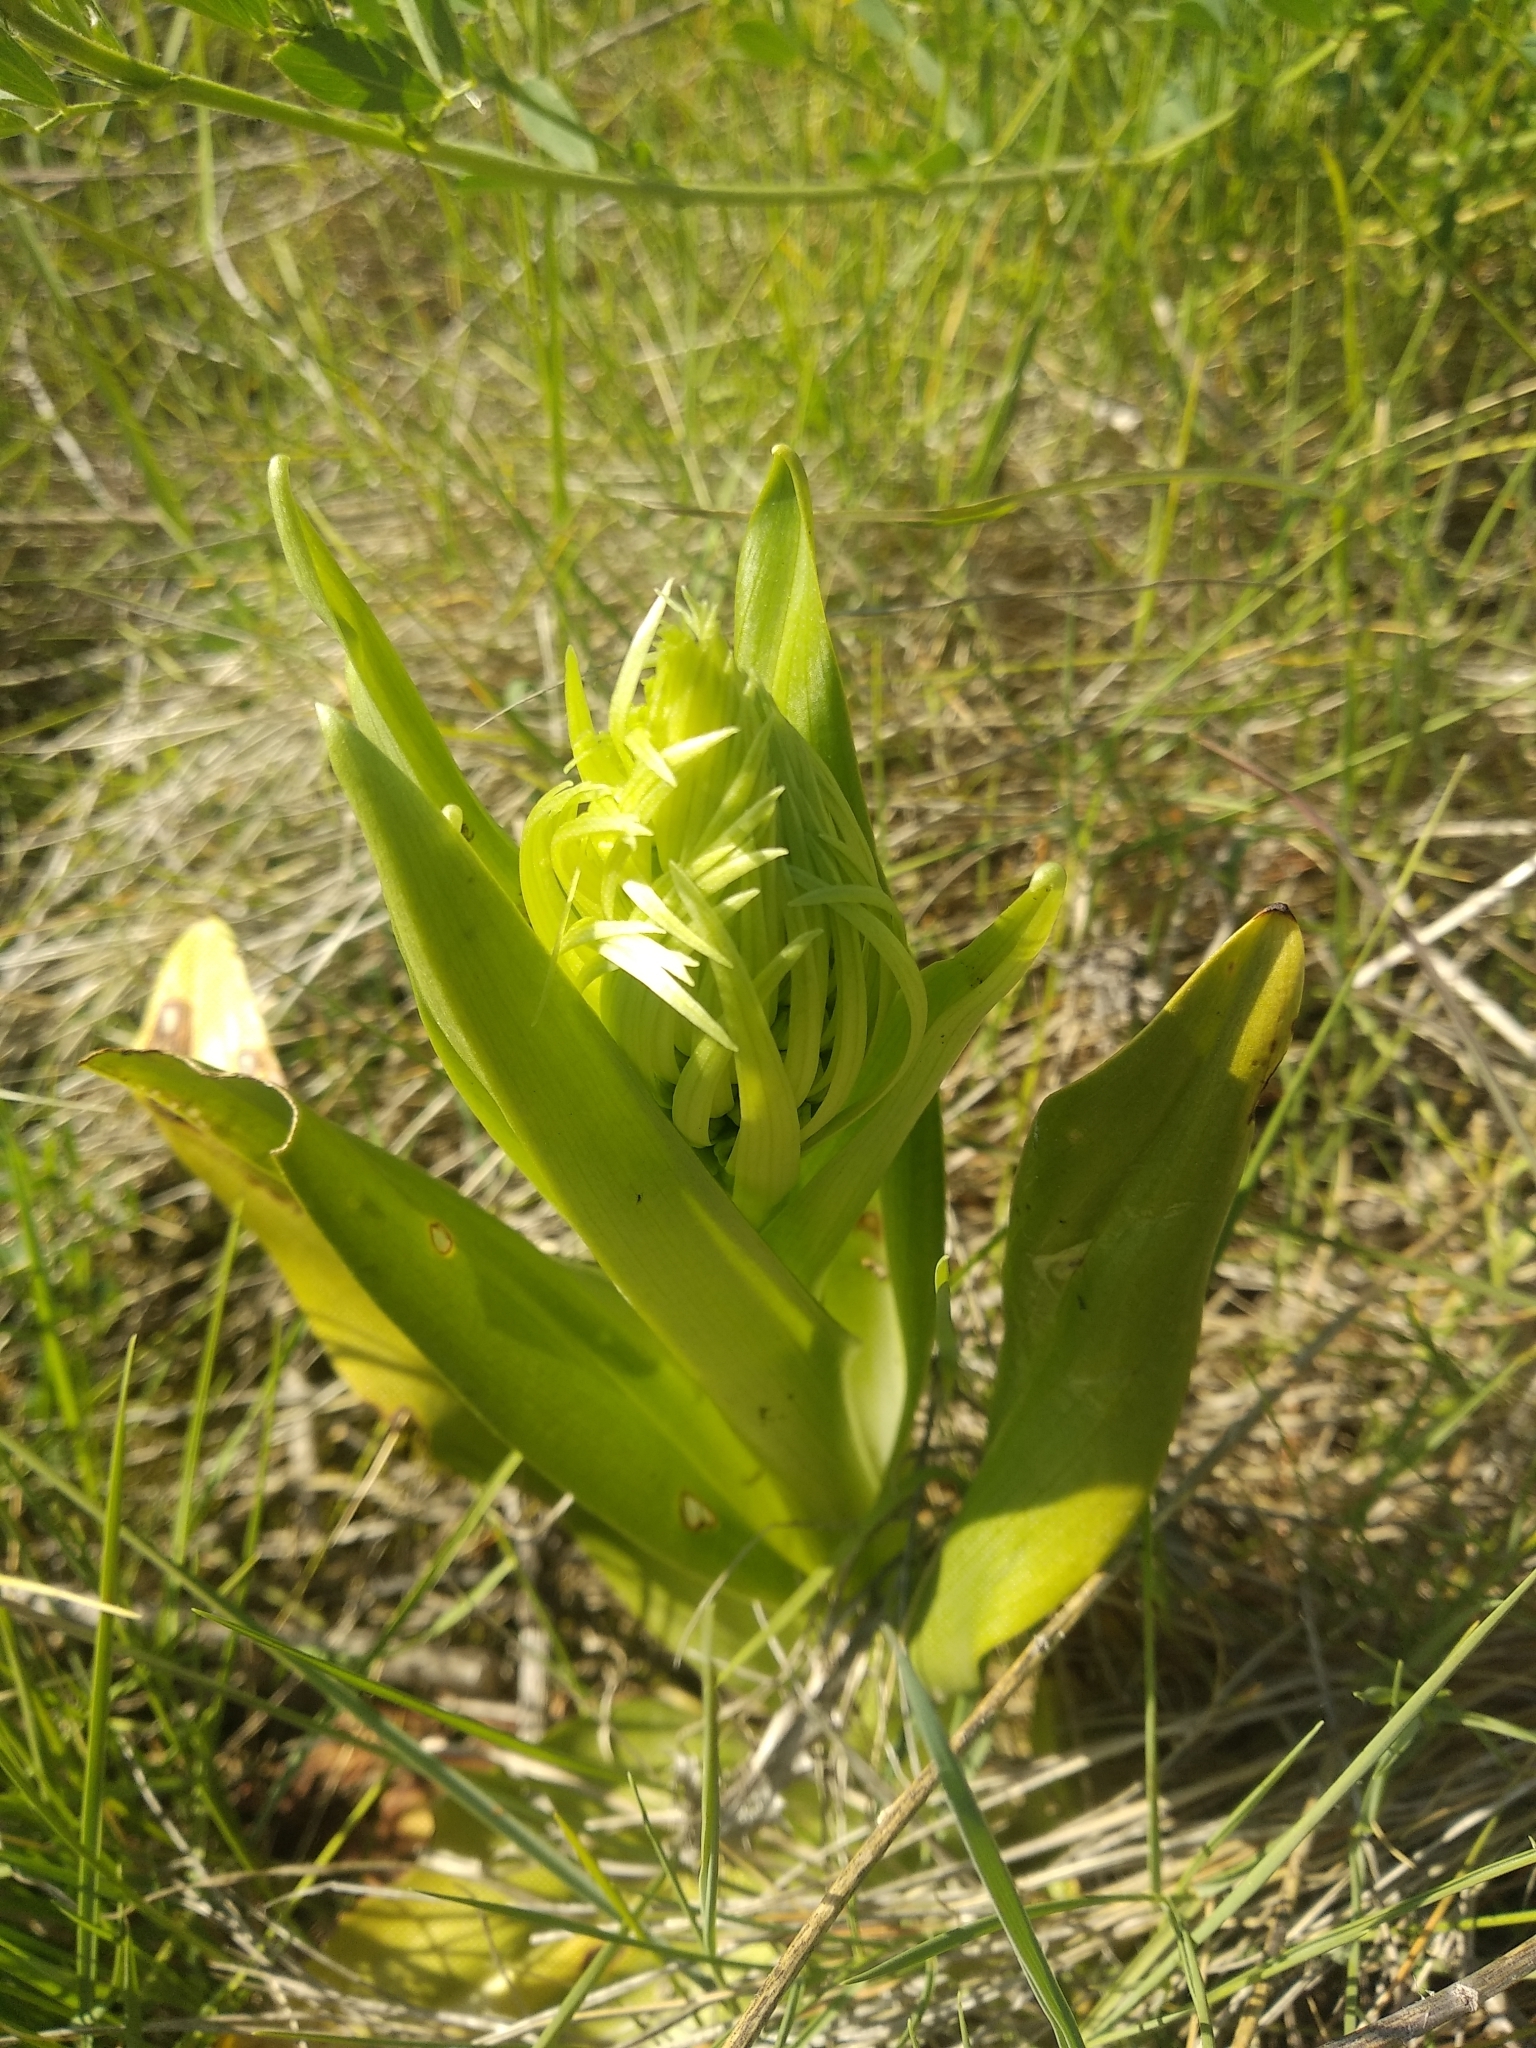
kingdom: Plantae
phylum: Tracheophyta
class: Liliopsida
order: Asparagales
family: Orchidaceae
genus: Himantoglossum
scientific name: Himantoglossum hircinum
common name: Lizard orchid
